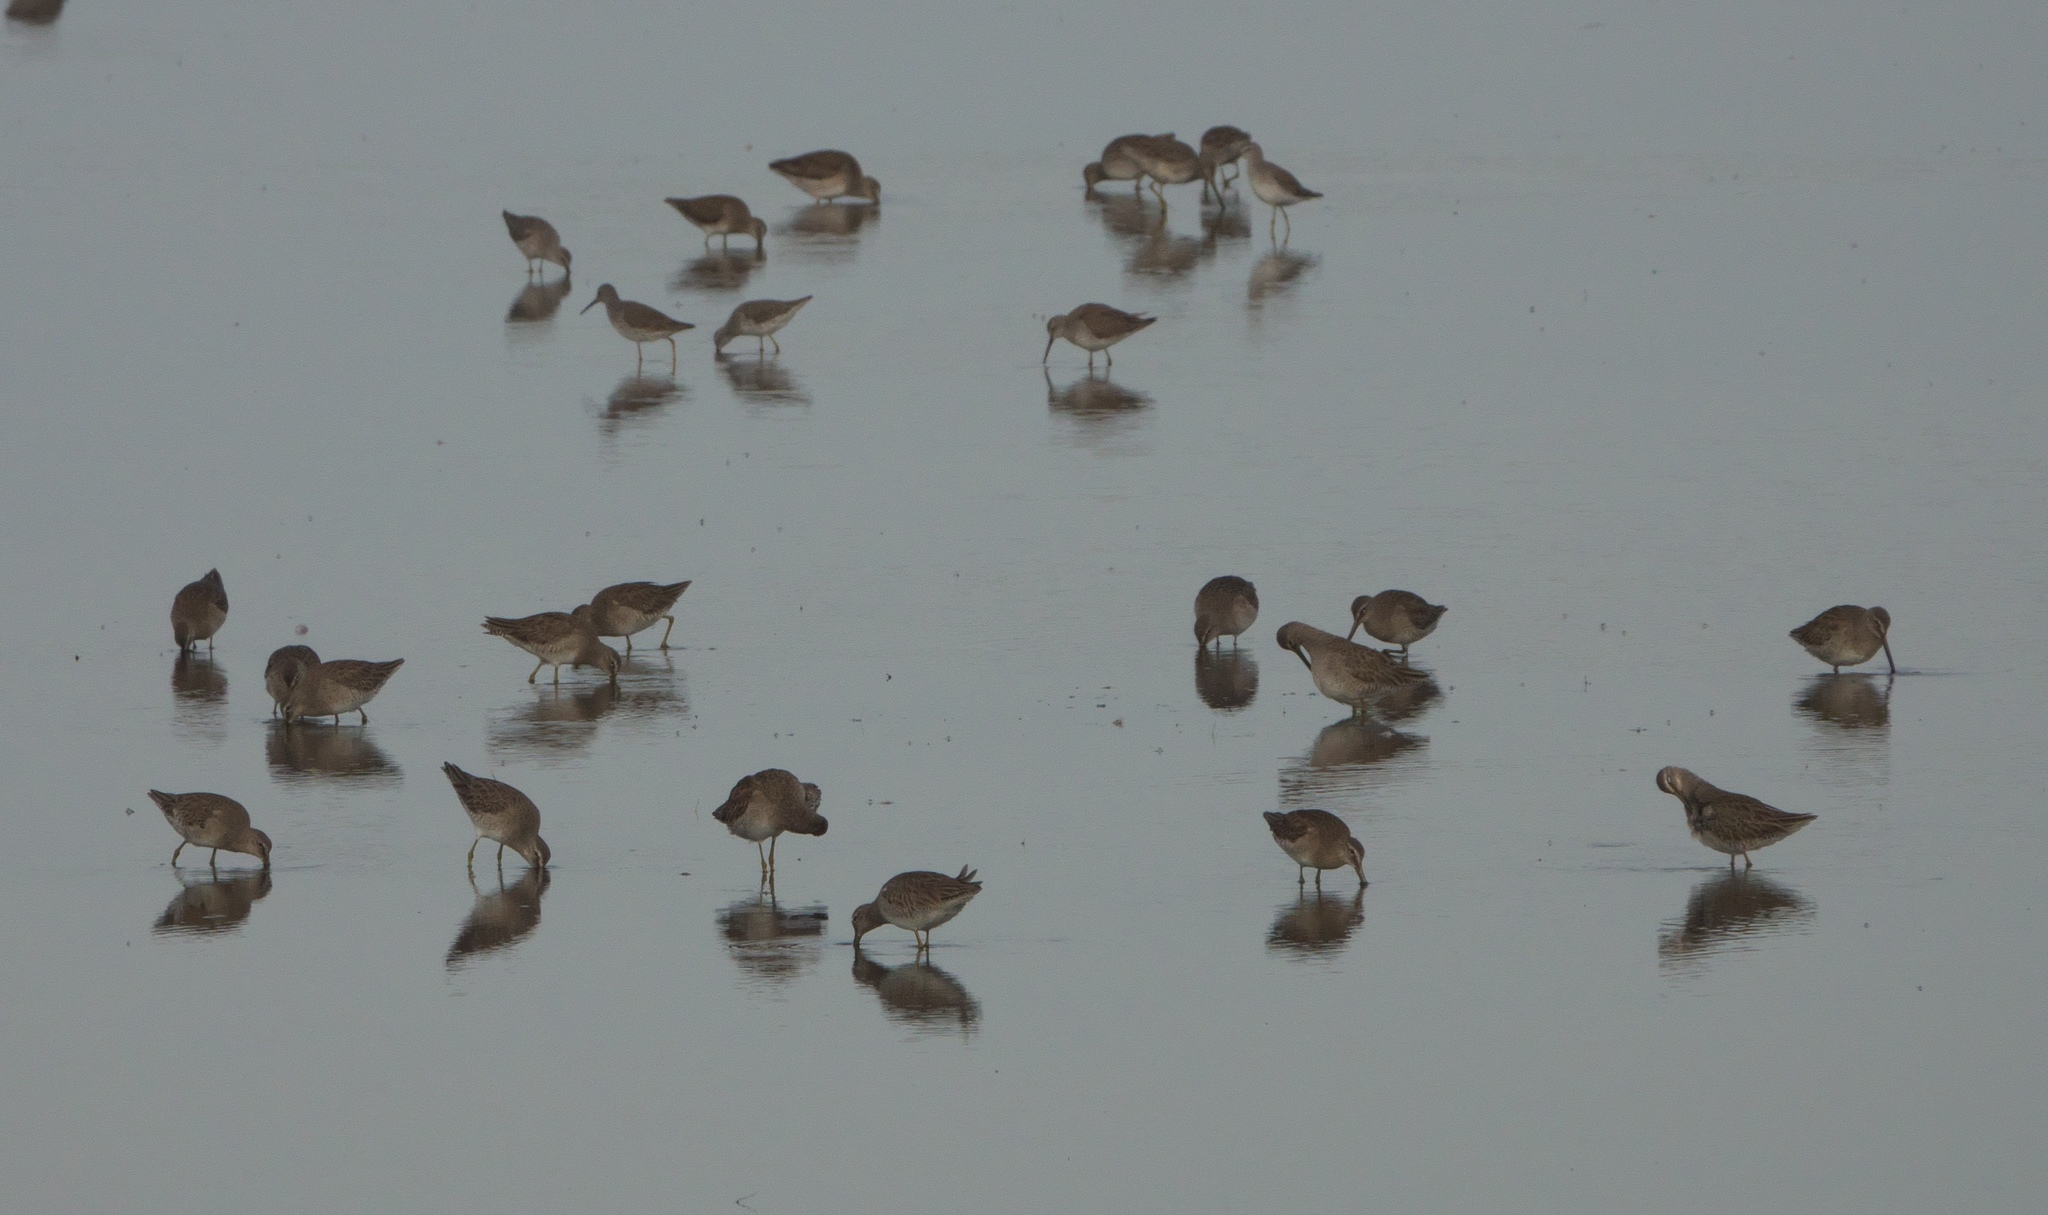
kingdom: Animalia
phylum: Chordata
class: Aves
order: Charadriiformes
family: Scolopacidae
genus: Limnodromus
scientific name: Limnodromus scolopaceus
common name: Long-billed dowitcher
